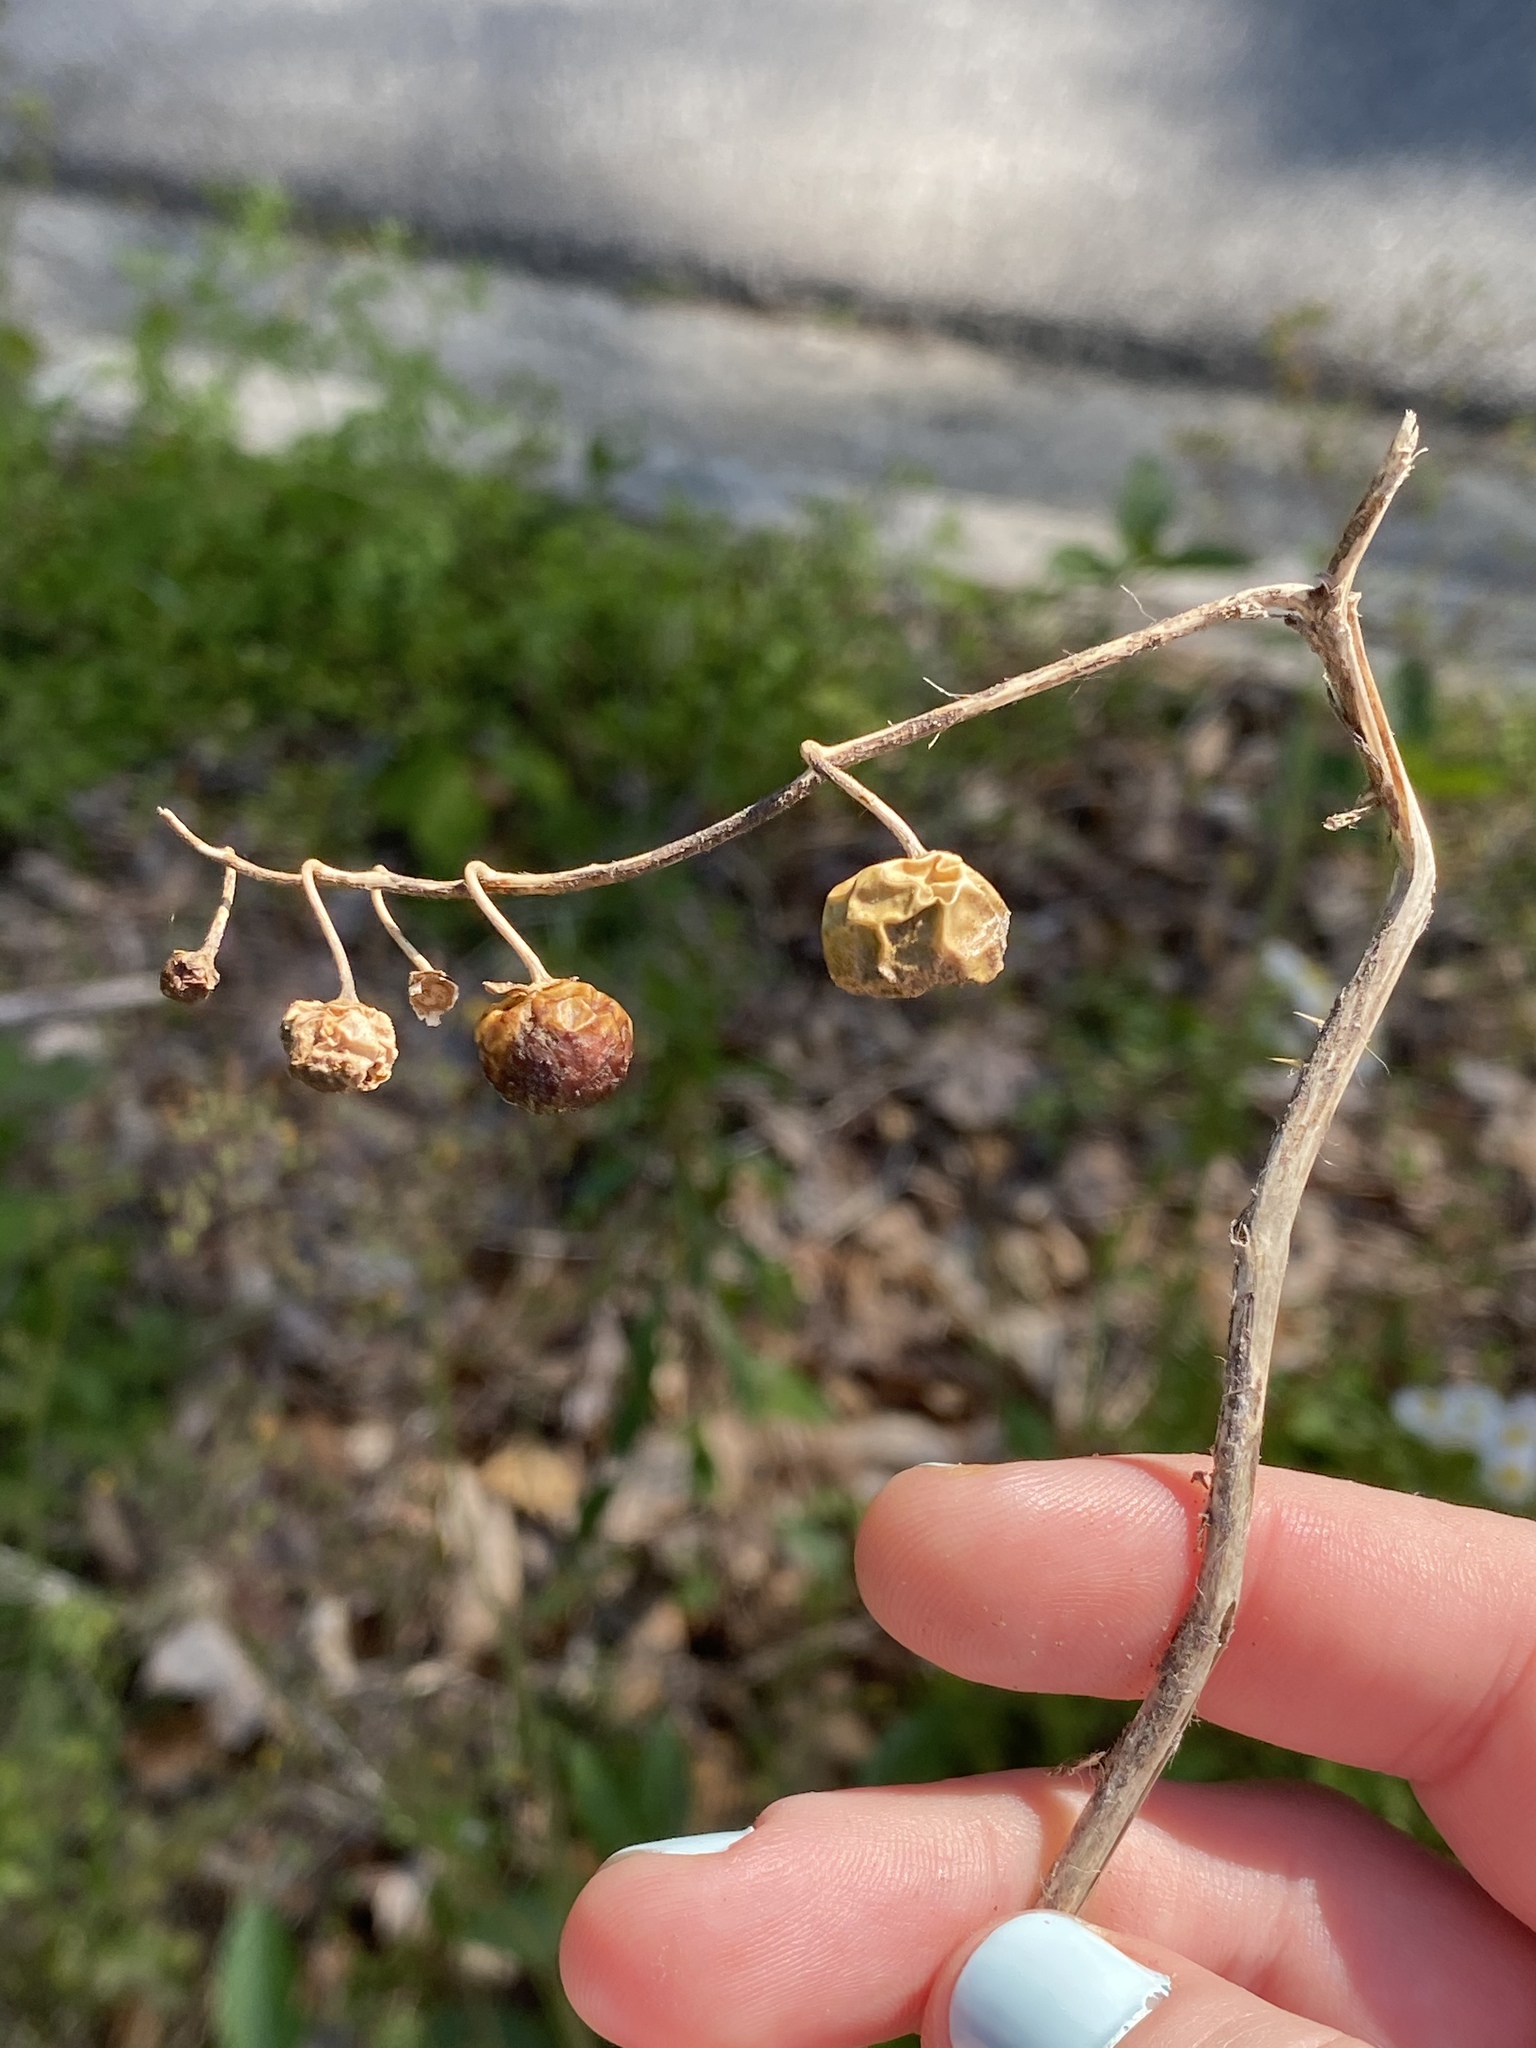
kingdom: Plantae
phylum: Tracheophyta
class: Magnoliopsida
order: Solanales
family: Solanaceae
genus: Solanum
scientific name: Solanum carolinense
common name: Horse-nettle
